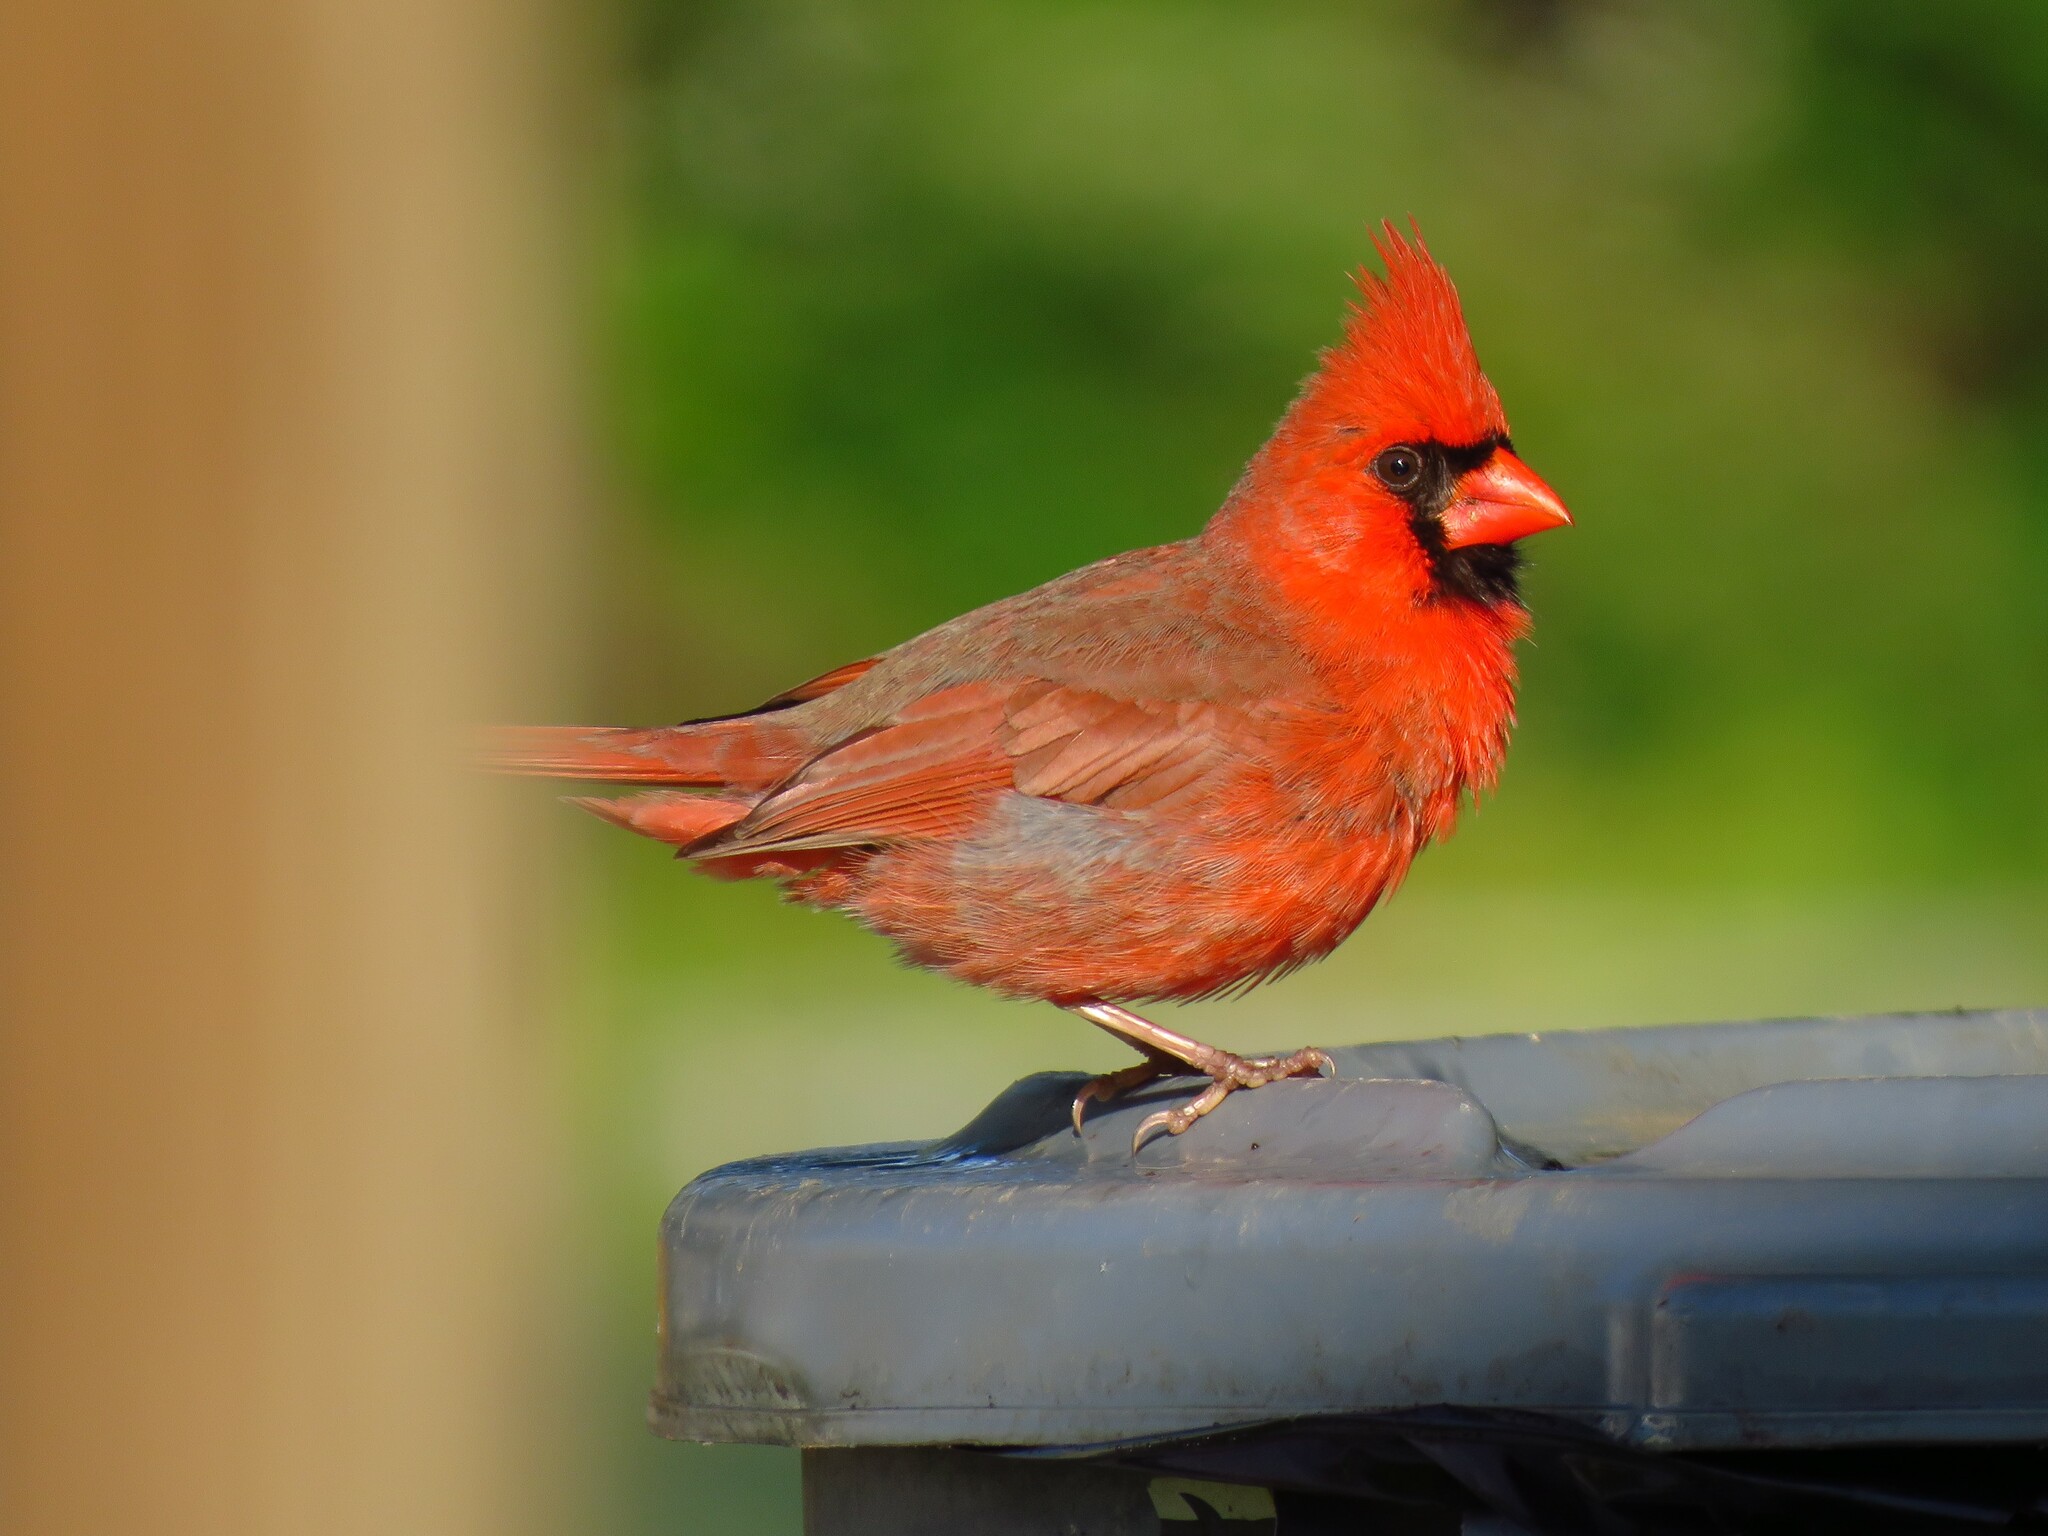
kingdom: Animalia
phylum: Chordata
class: Aves
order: Passeriformes
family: Cardinalidae
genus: Cardinalis
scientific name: Cardinalis cardinalis
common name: Northern cardinal
